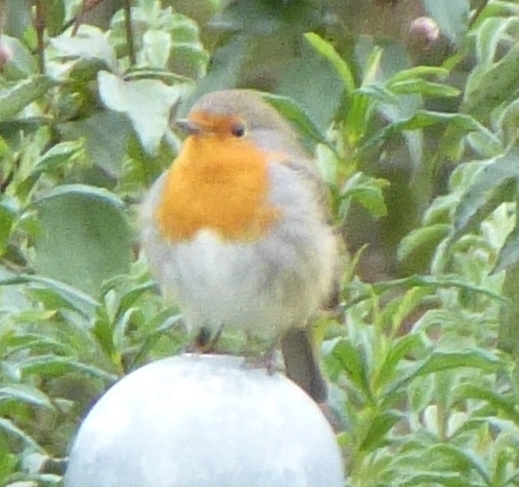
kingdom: Animalia
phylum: Chordata
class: Aves
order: Passeriformes
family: Muscicapidae
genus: Erithacus
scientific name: Erithacus rubecula
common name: European robin
